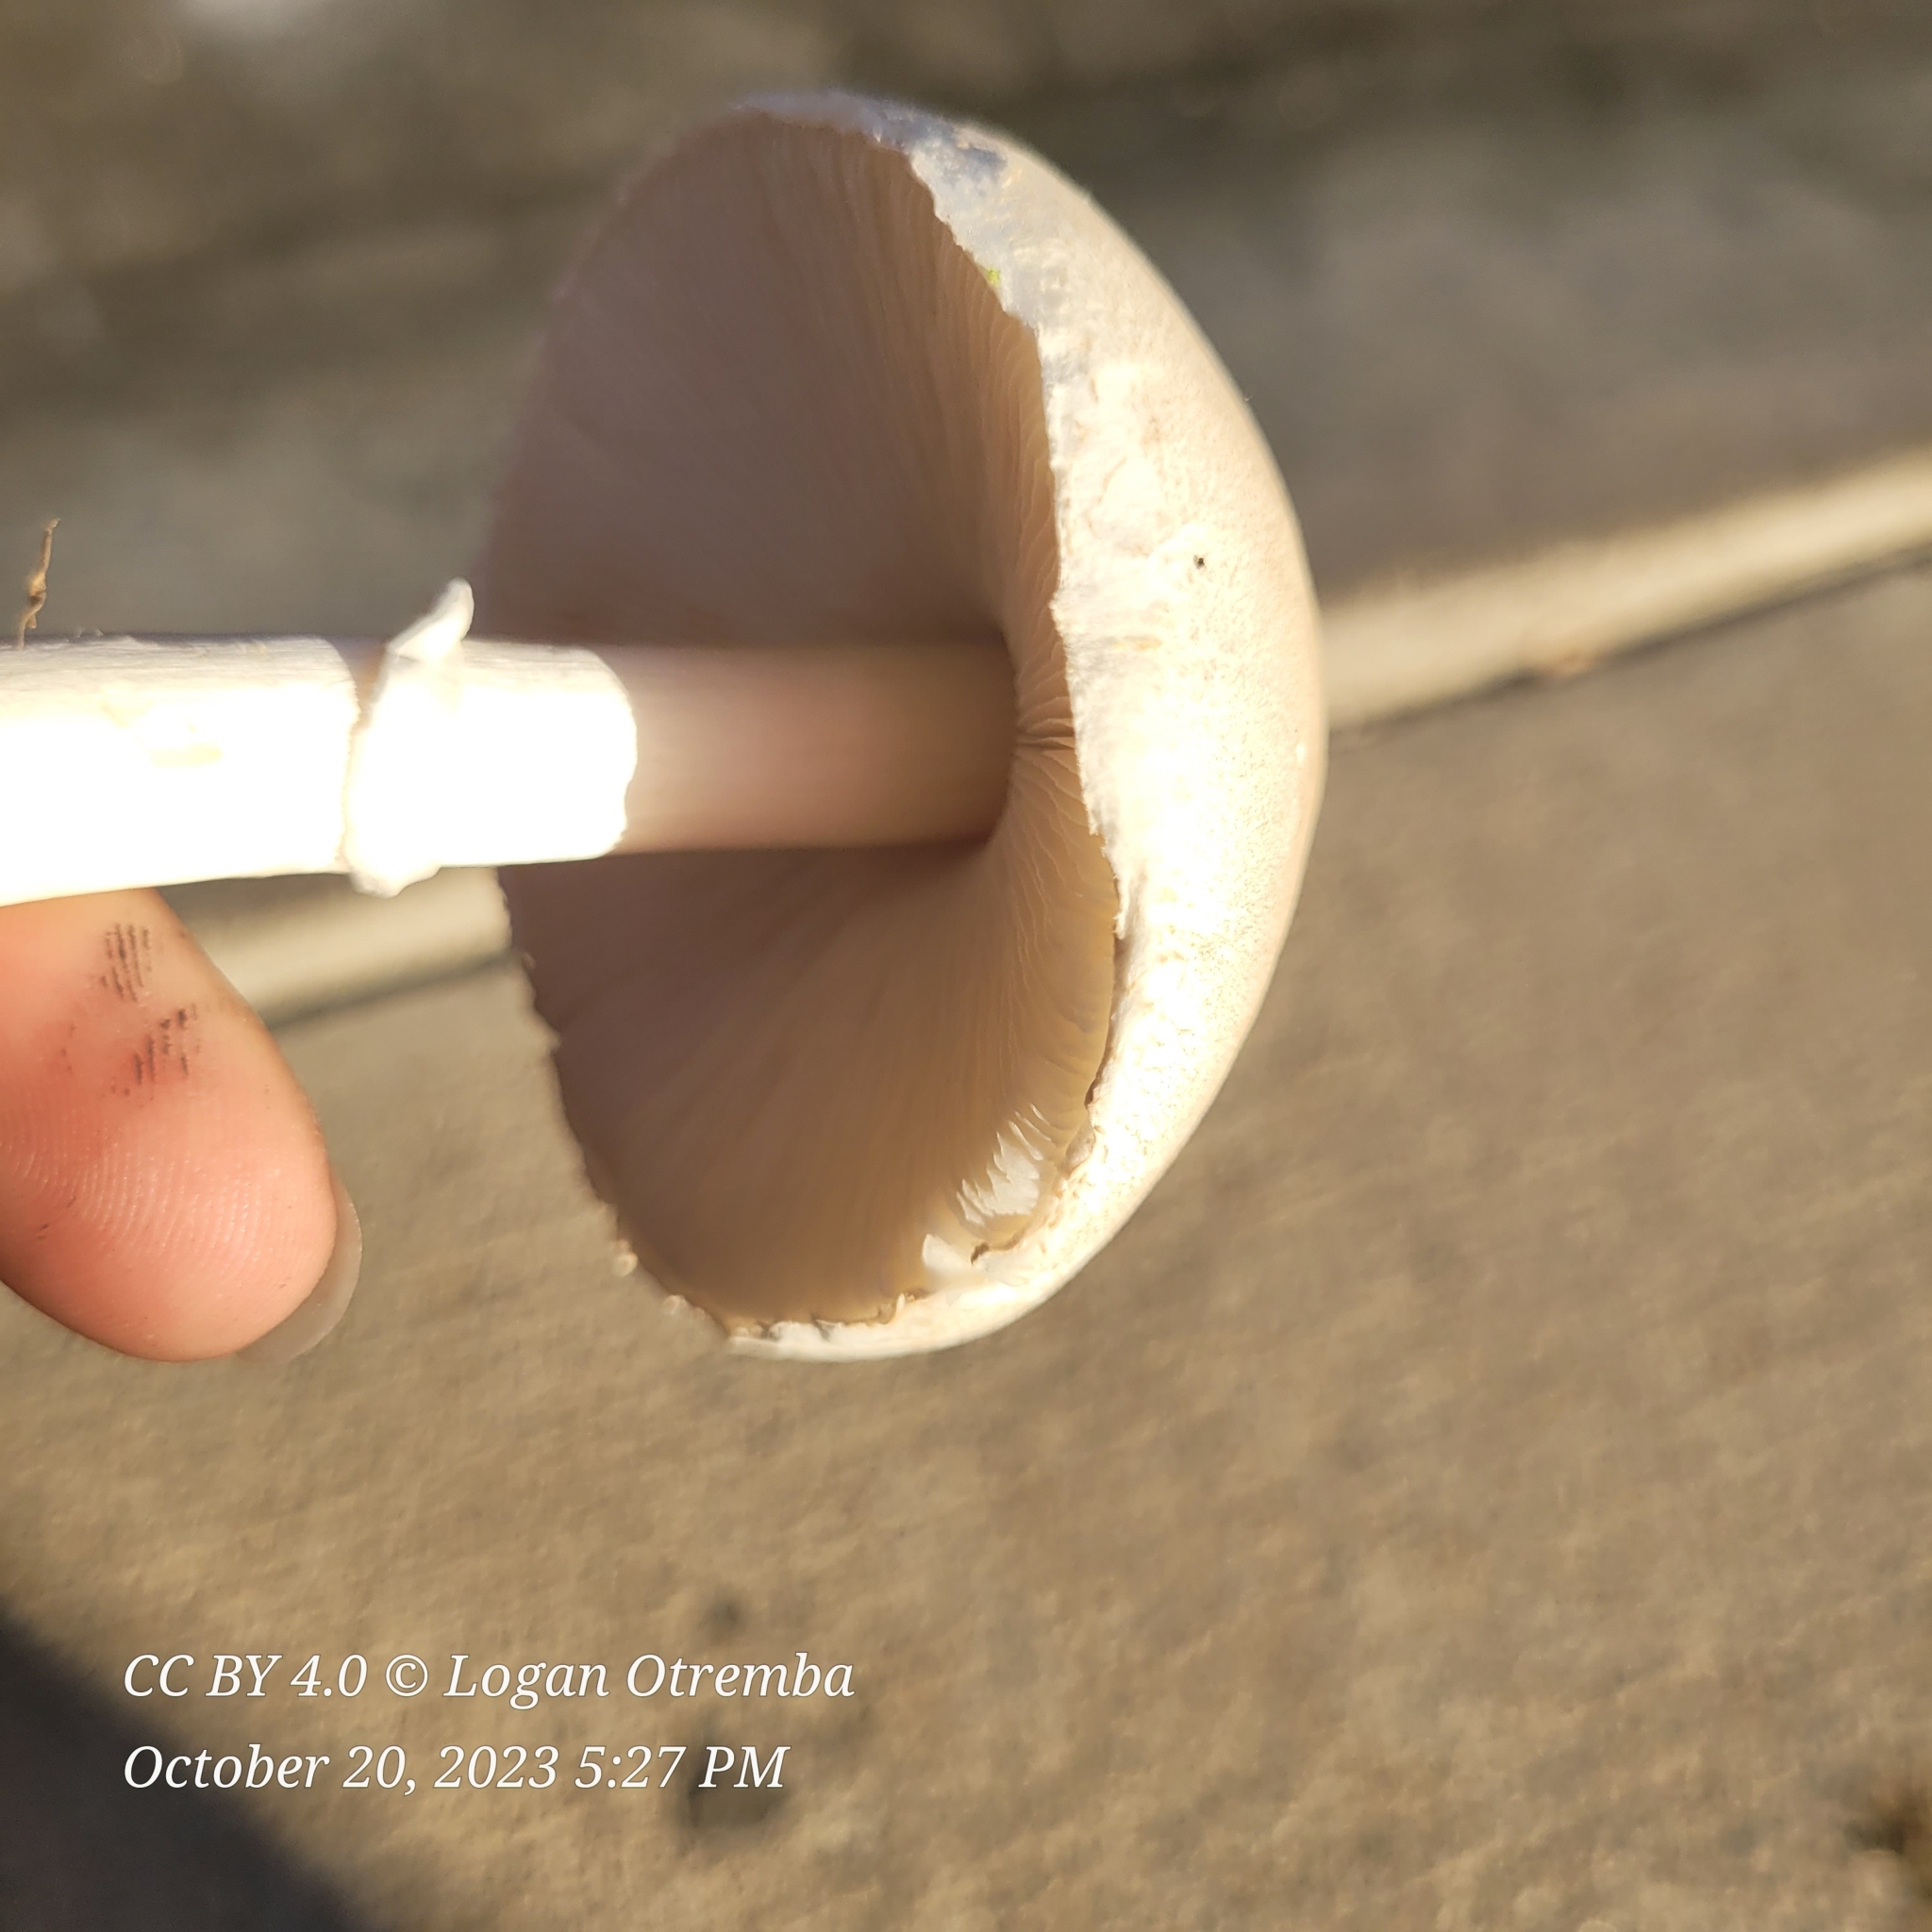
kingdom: Fungi
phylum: Basidiomycota
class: Agaricomycetes
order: Agaricales
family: Agaricaceae
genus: Leucoagaricus
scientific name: Leucoagaricus leucothites
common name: White dapperling
